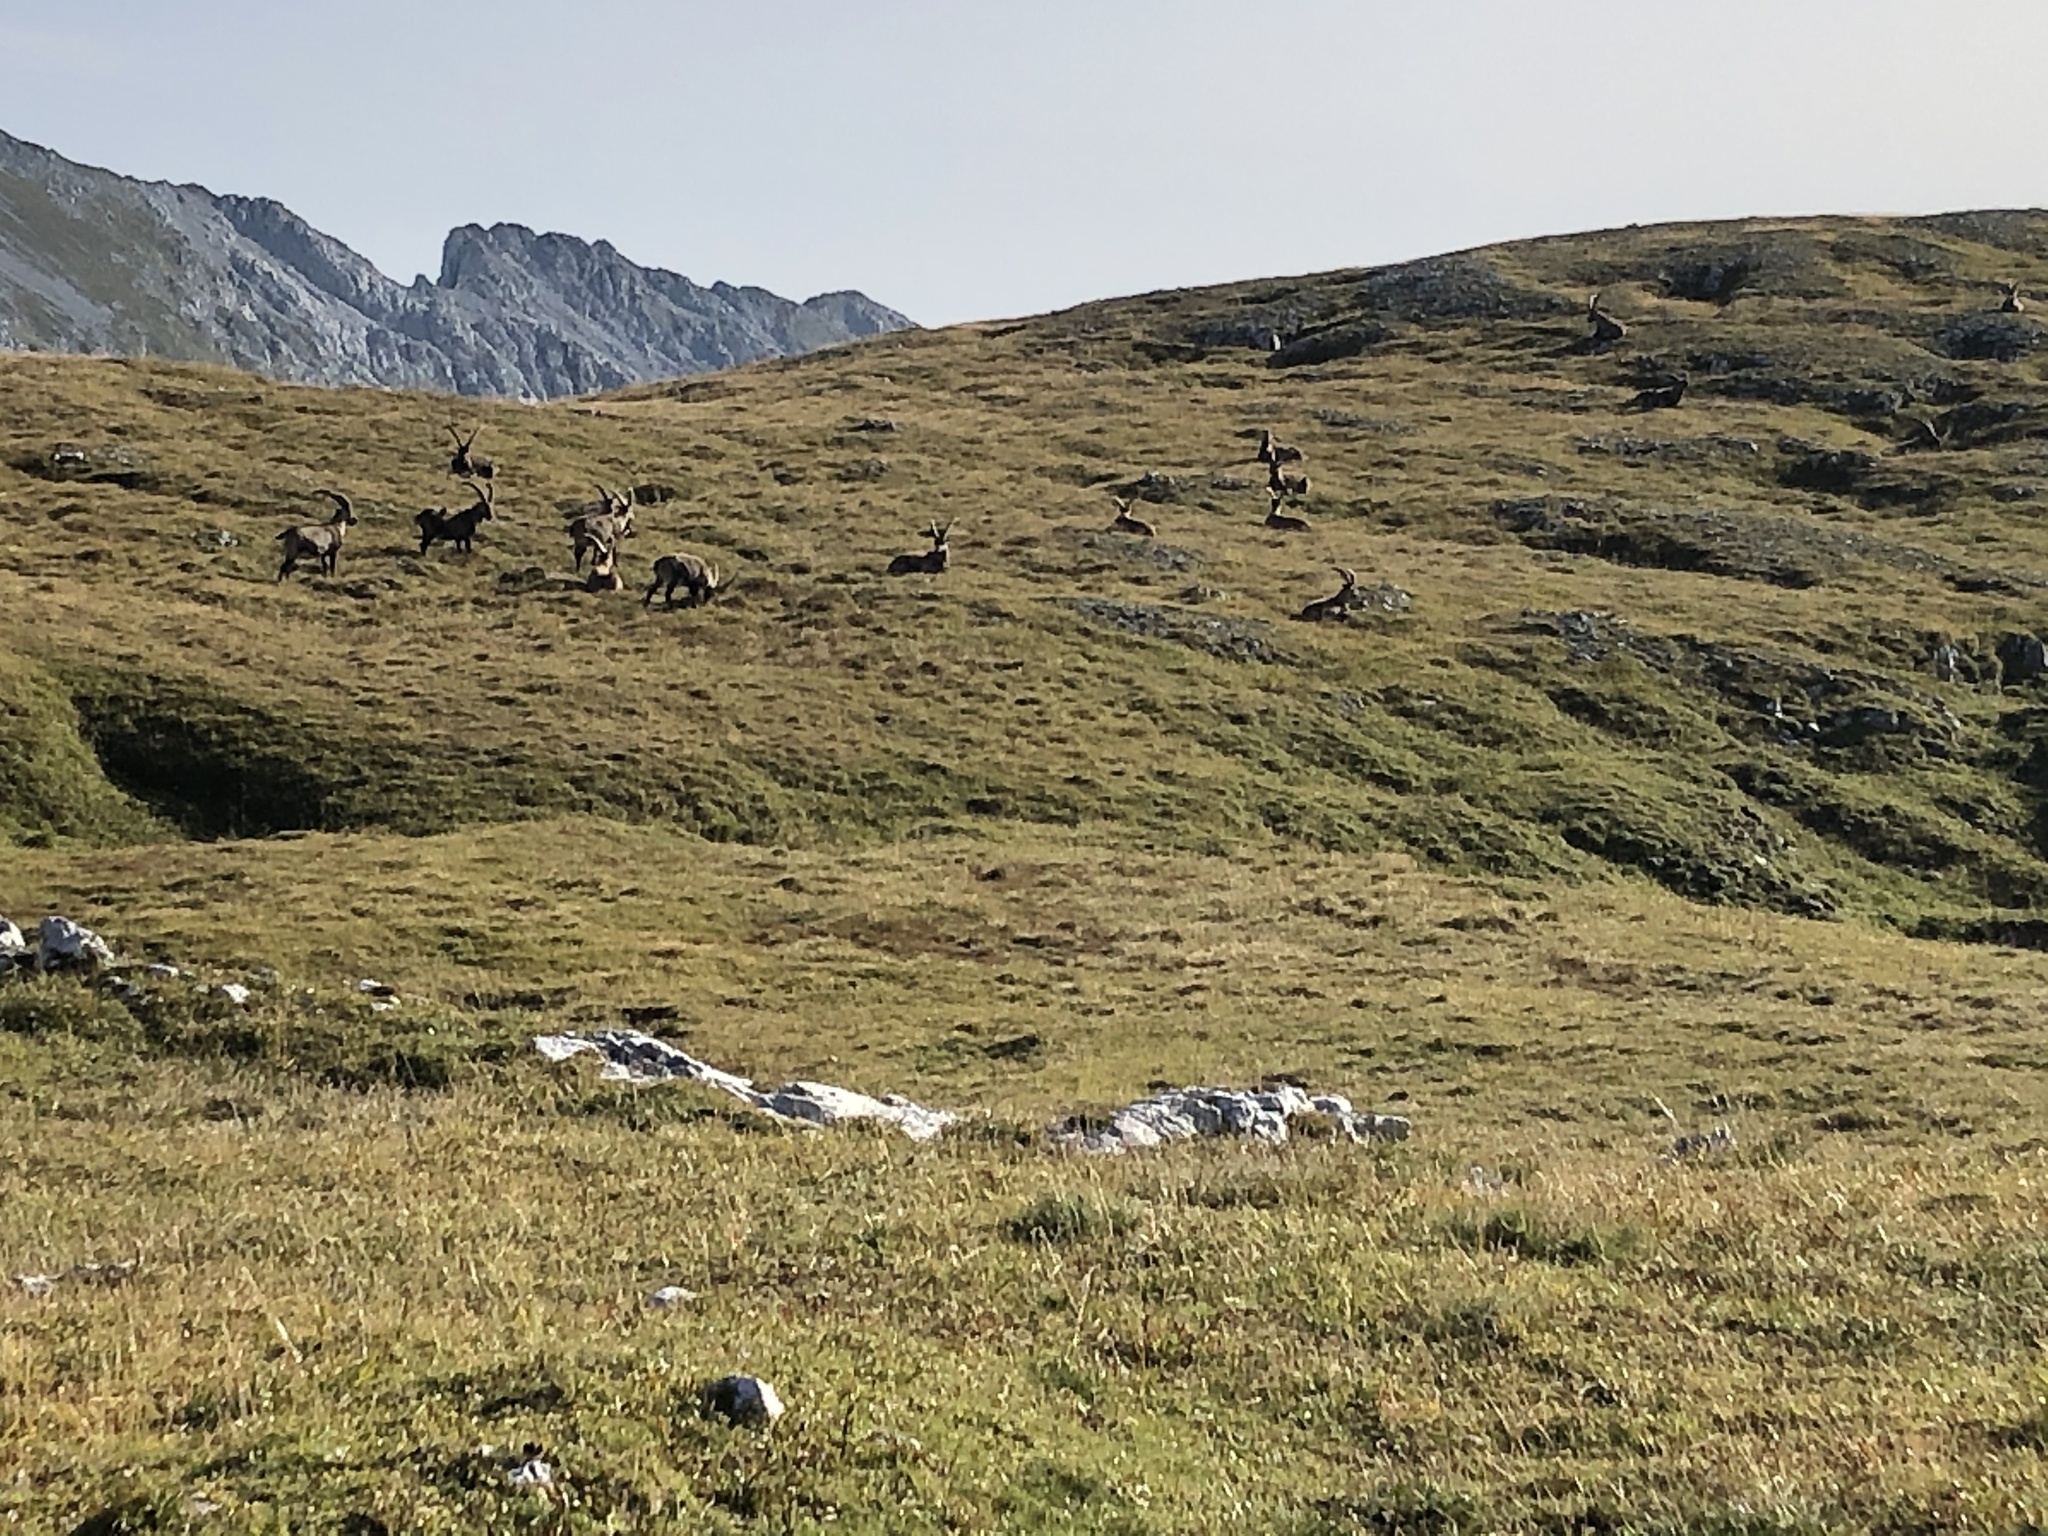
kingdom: Animalia
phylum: Chordata
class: Mammalia
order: Artiodactyla
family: Bovidae
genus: Capra
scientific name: Capra ibex
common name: Alpine ibex
